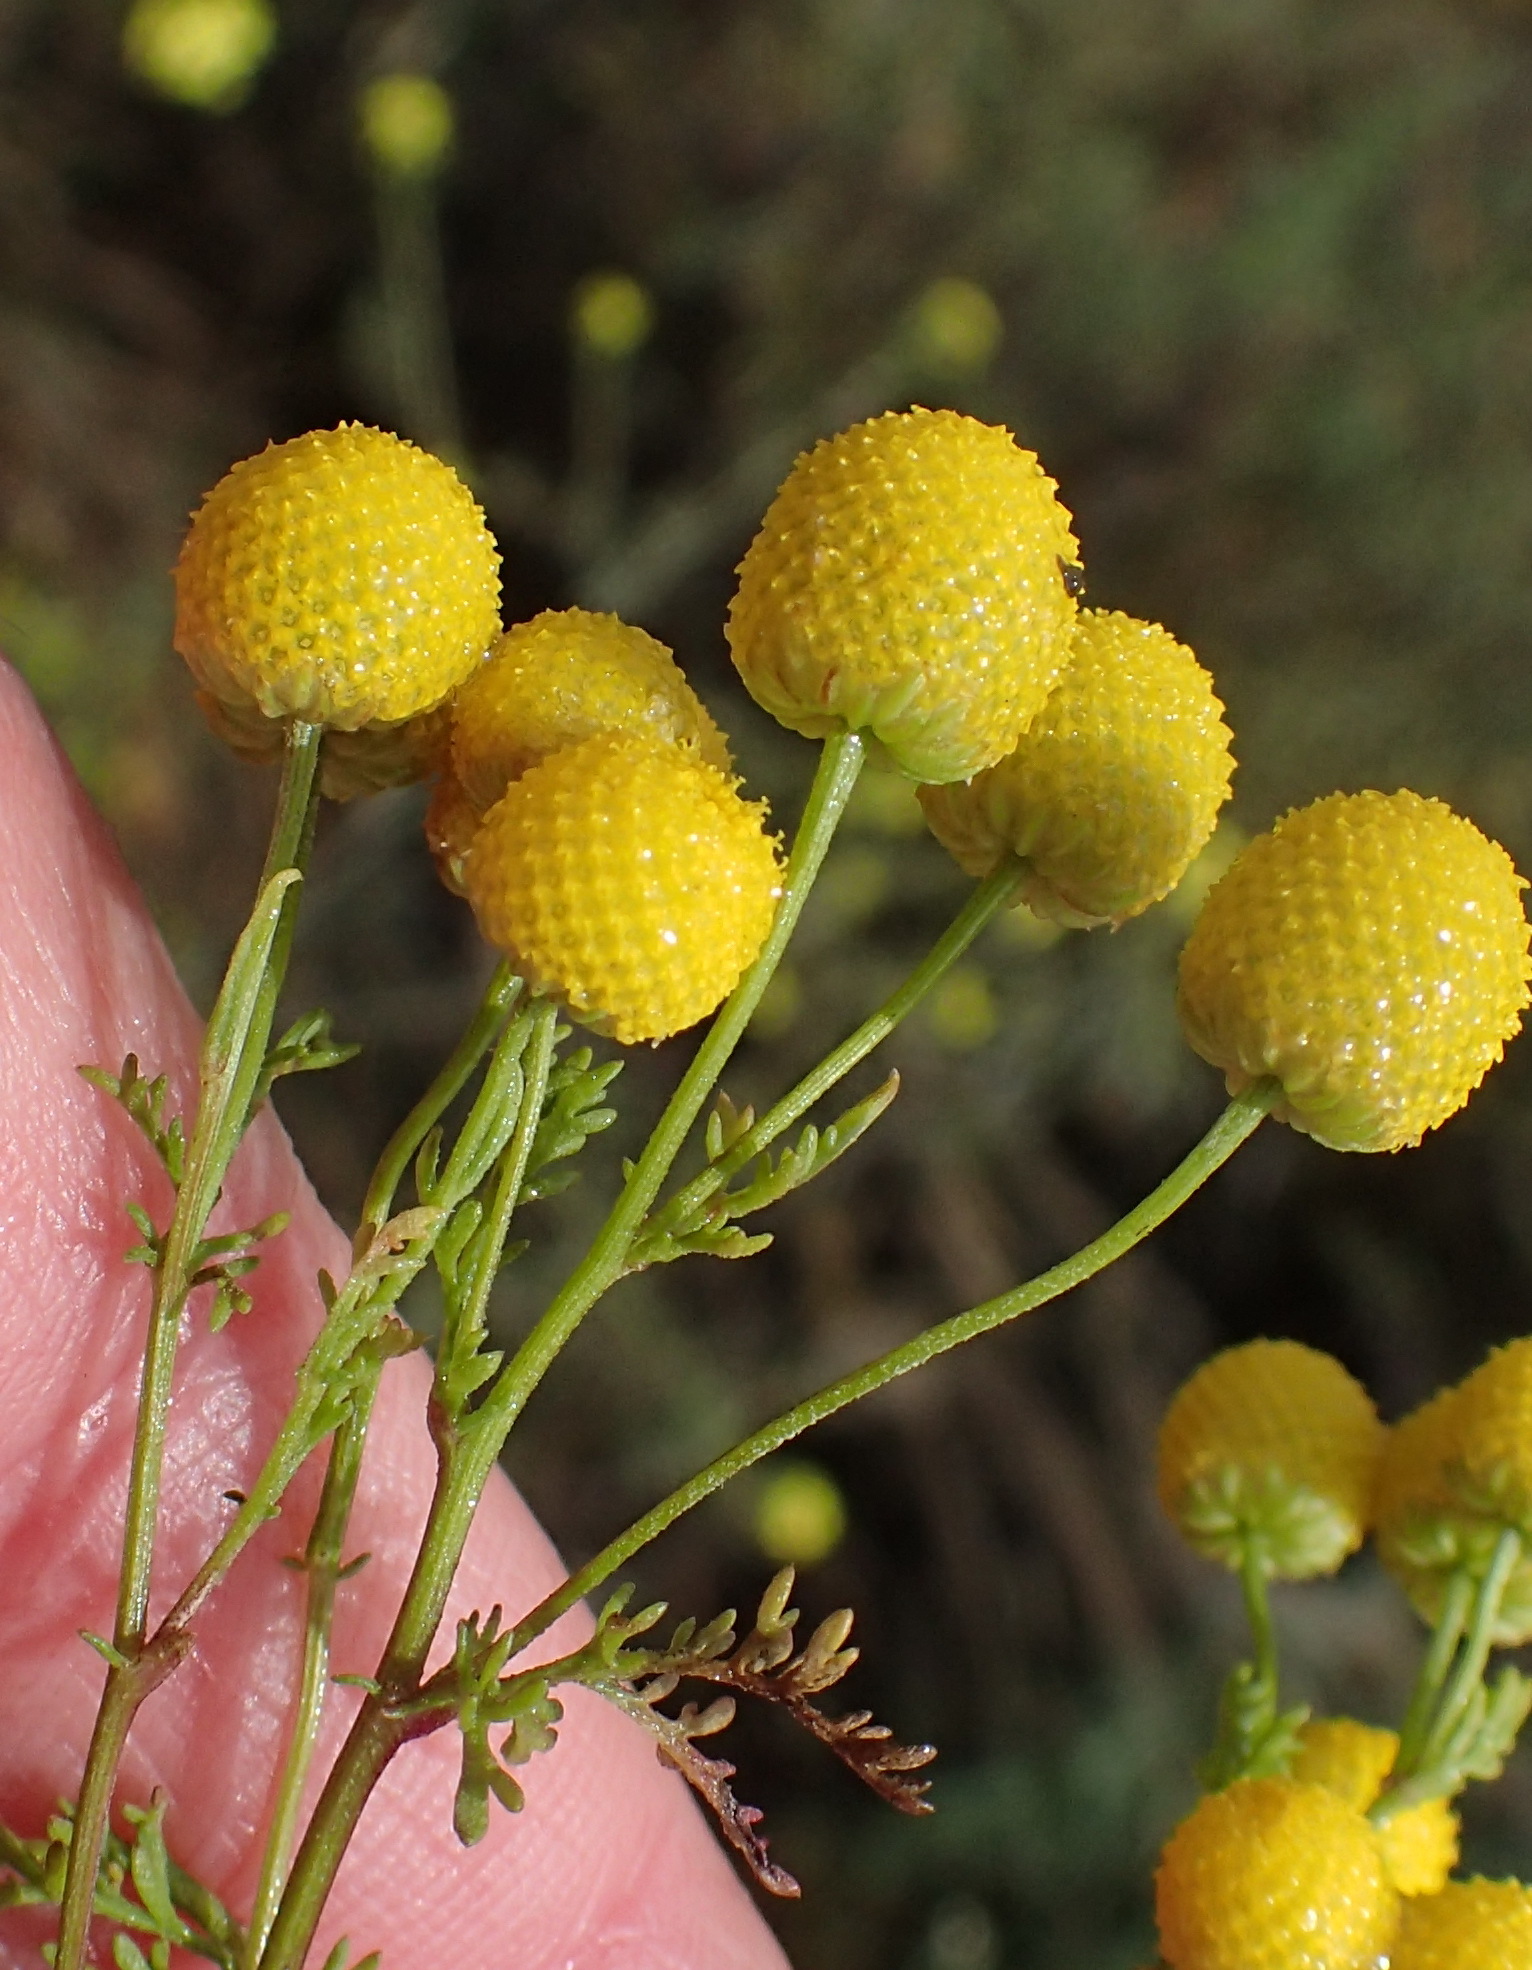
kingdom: Plantae
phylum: Tracheophyta
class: Magnoliopsida
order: Asterales
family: Asteraceae
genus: Oncosiphon
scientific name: Oncosiphon pilulifer
